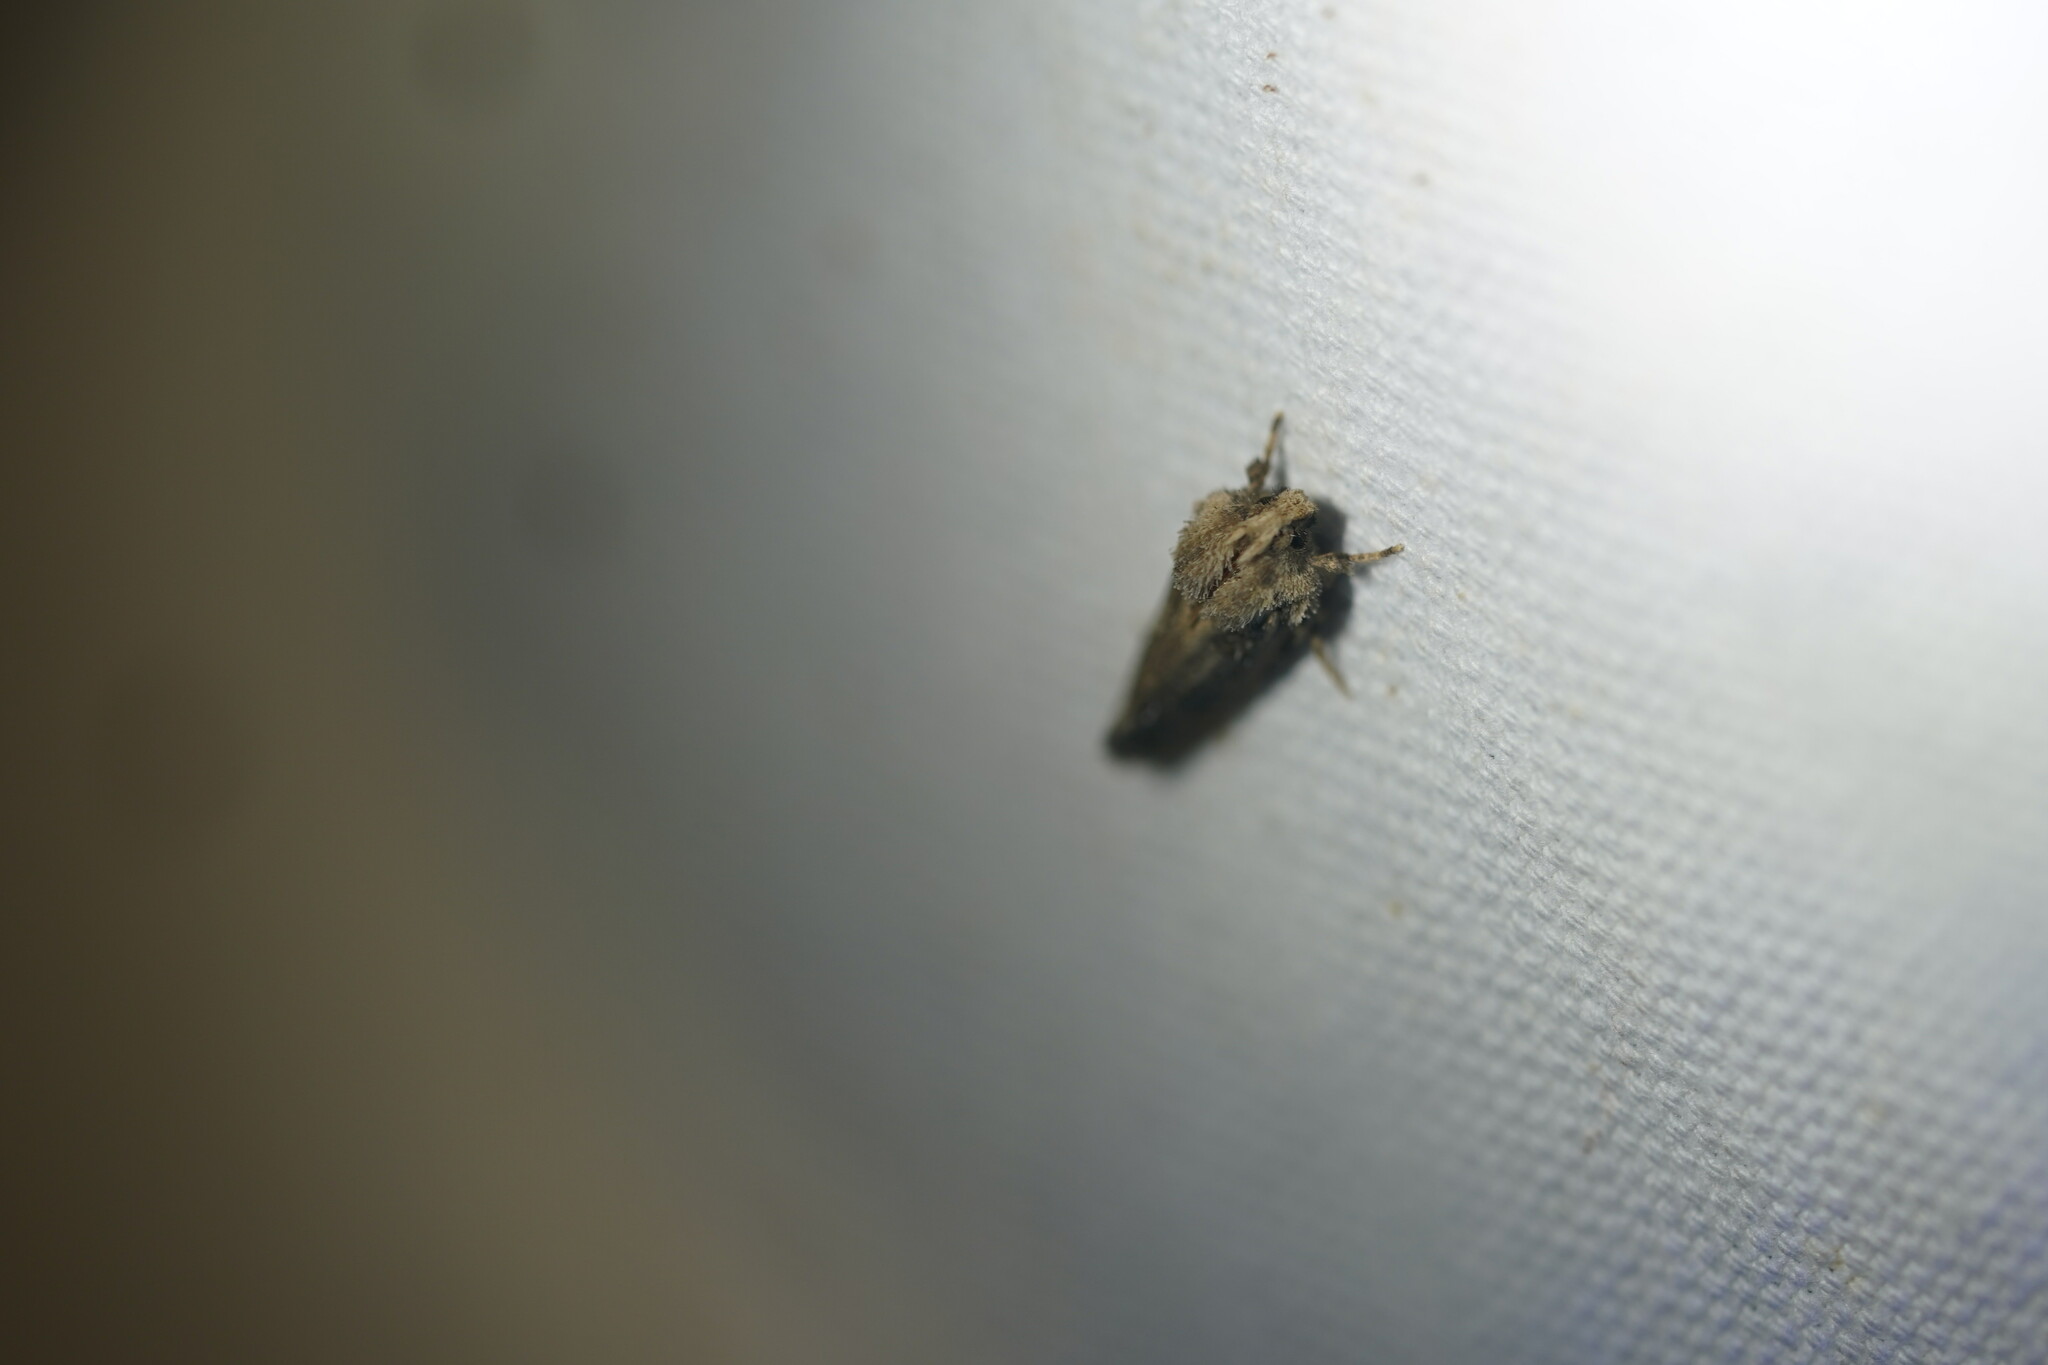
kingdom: Animalia
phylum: Arthropoda
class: Insecta
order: Lepidoptera
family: Tineidae
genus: Acrolophus
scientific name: Acrolophus arcanella
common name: Arcane grass tubeworm moth
